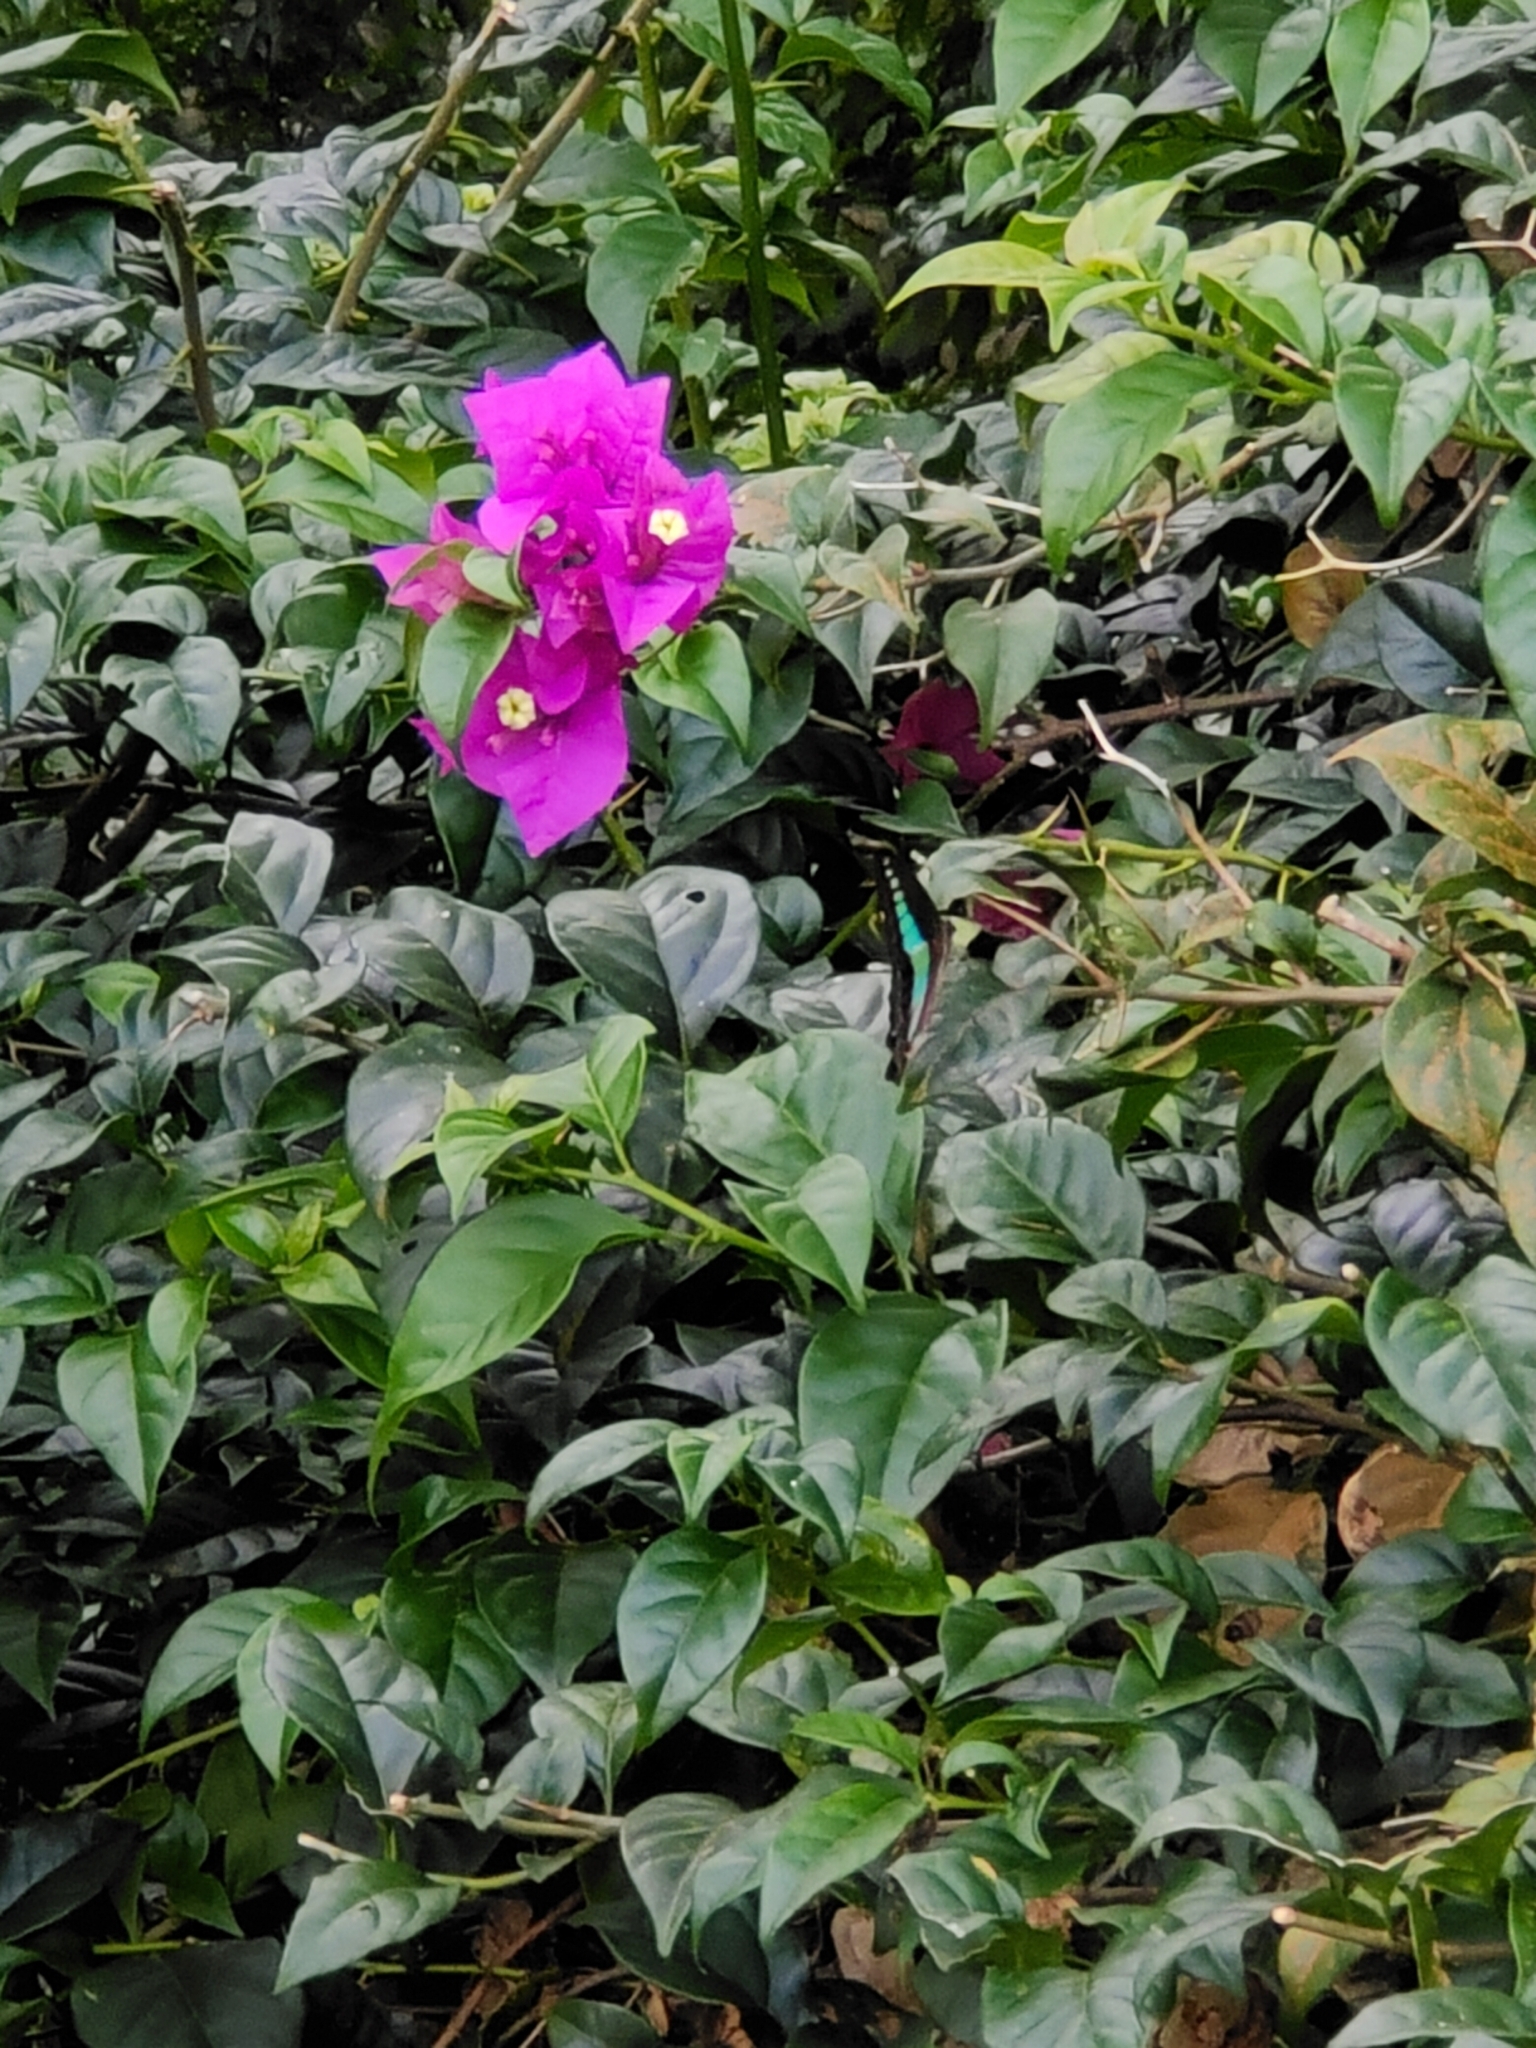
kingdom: Fungi
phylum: Ascomycota
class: Sordariomycetes
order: Microascales
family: Microascaceae
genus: Graphium
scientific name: Graphium sarpedon
